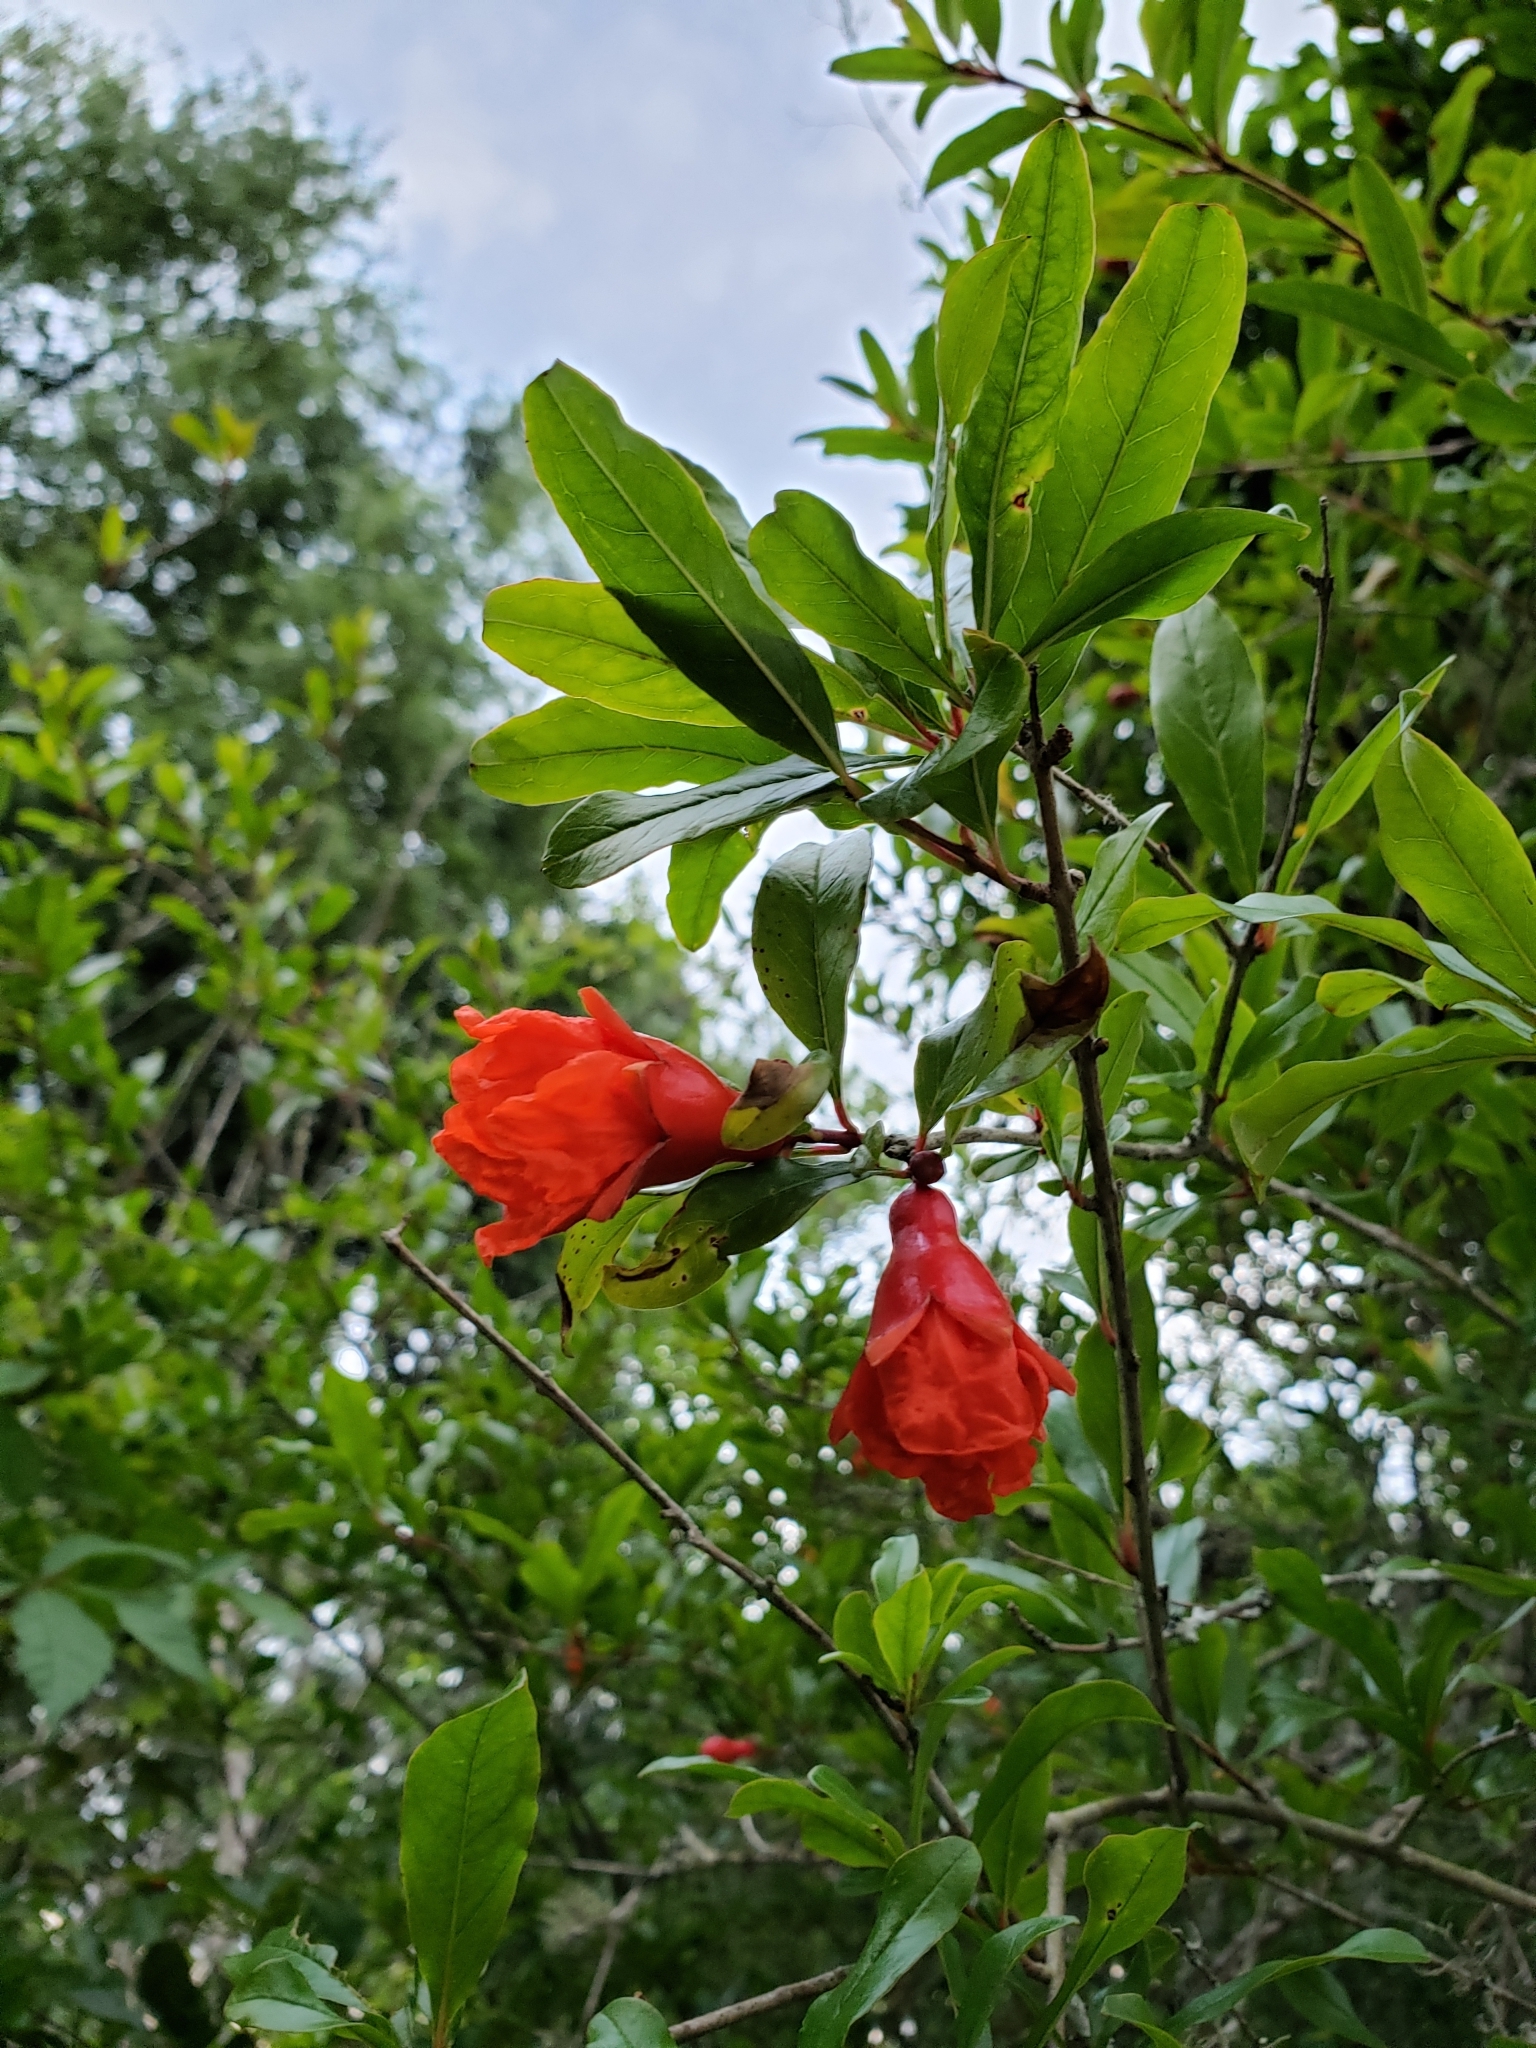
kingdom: Plantae
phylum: Tracheophyta
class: Magnoliopsida
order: Myrtales
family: Lythraceae
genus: Punica
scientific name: Punica granatum
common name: Pomegranate
